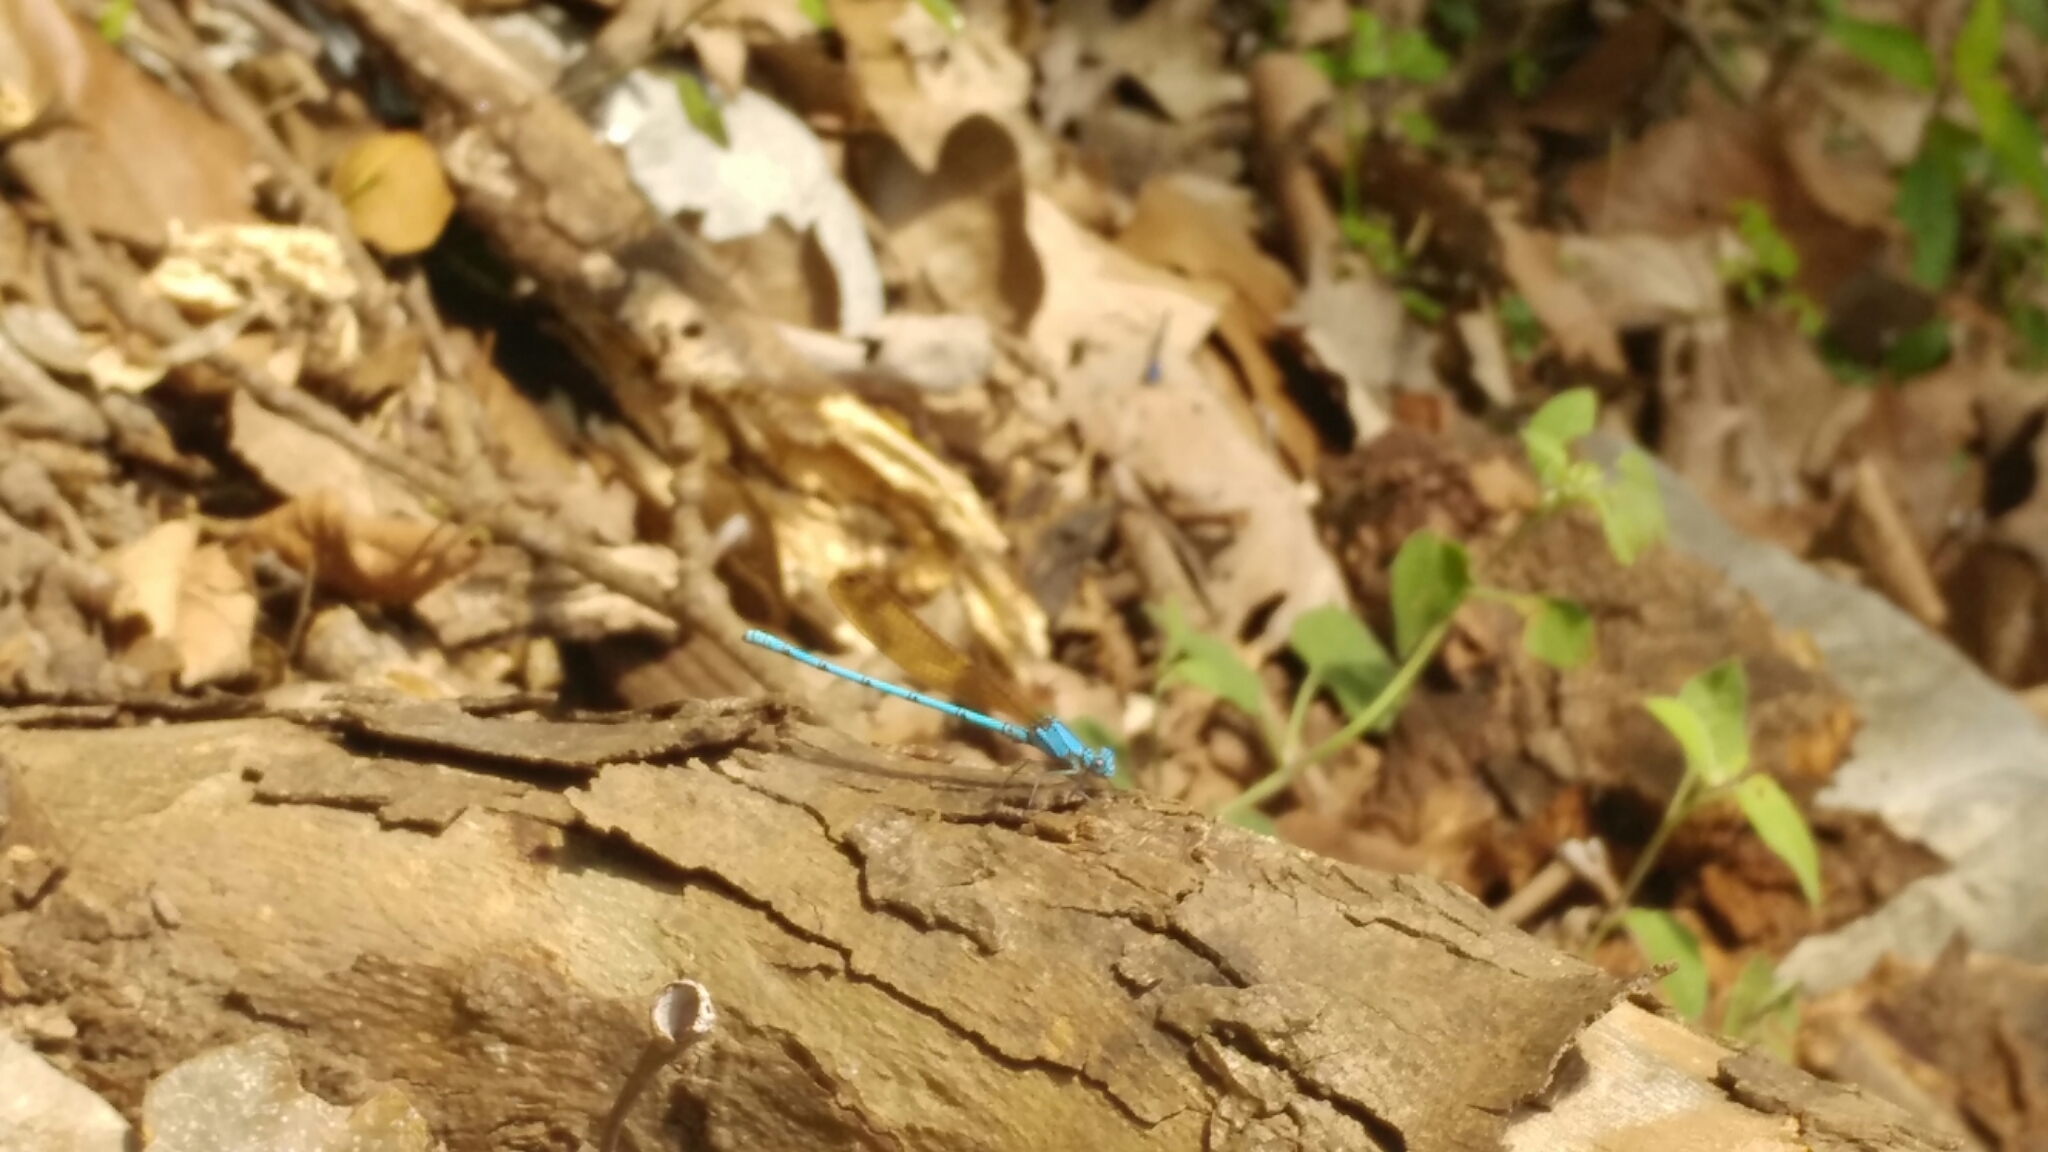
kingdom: Animalia
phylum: Arthropoda
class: Insecta
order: Odonata
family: Coenagrionidae
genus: Argia
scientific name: Argia anceps
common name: Cerulean dancer
